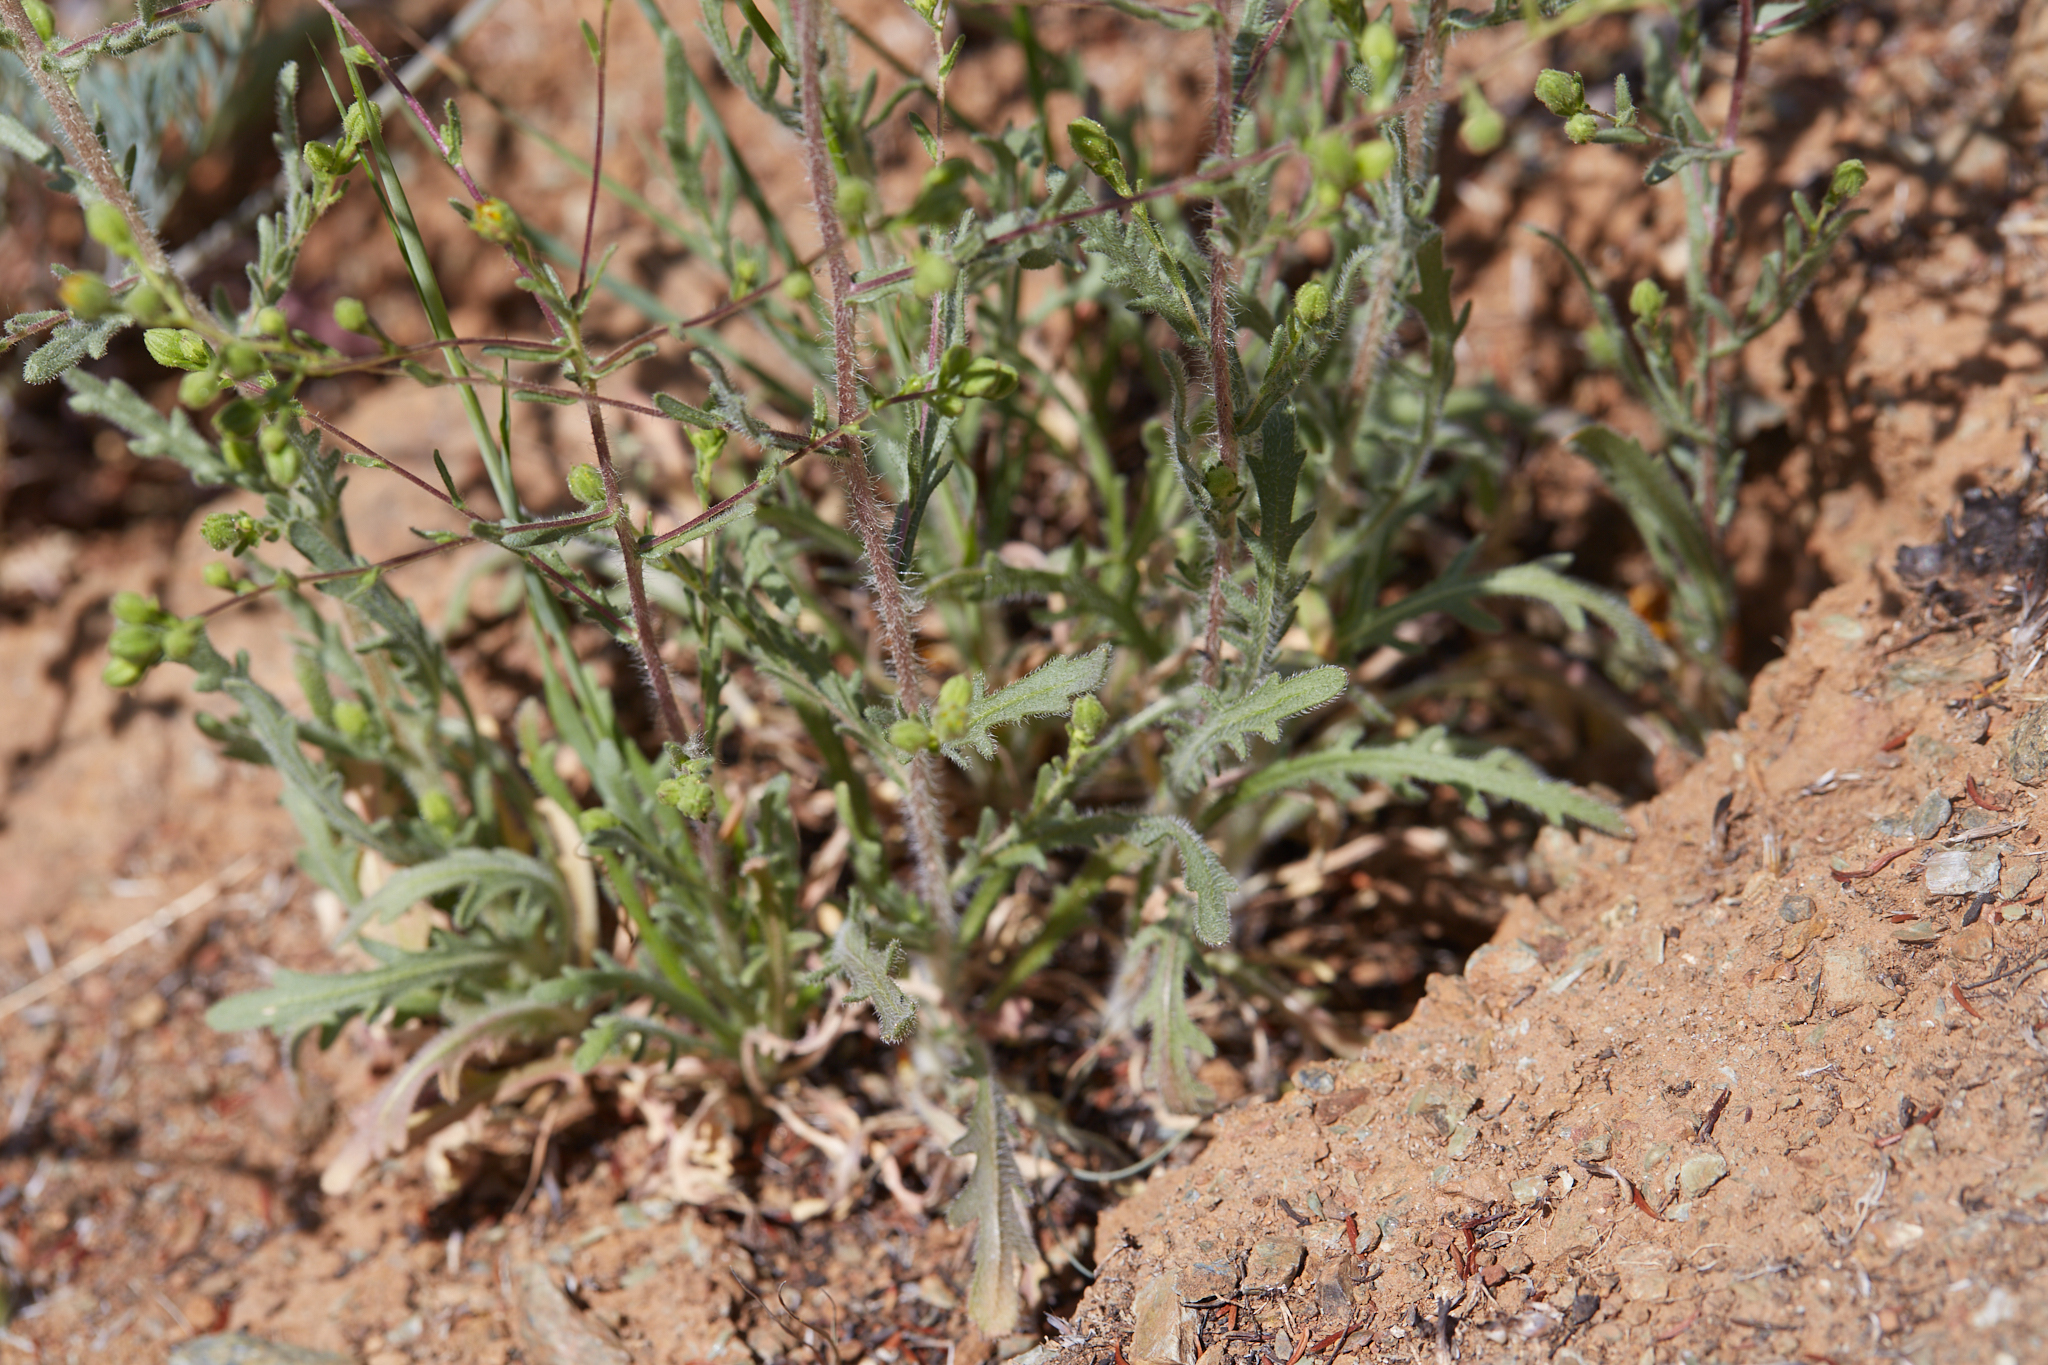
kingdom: Plantae
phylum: Tracheophyta
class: Magnoliopsida
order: Asterales
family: Asteraceae
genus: Deinandra
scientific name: Deinandra kelloggii
